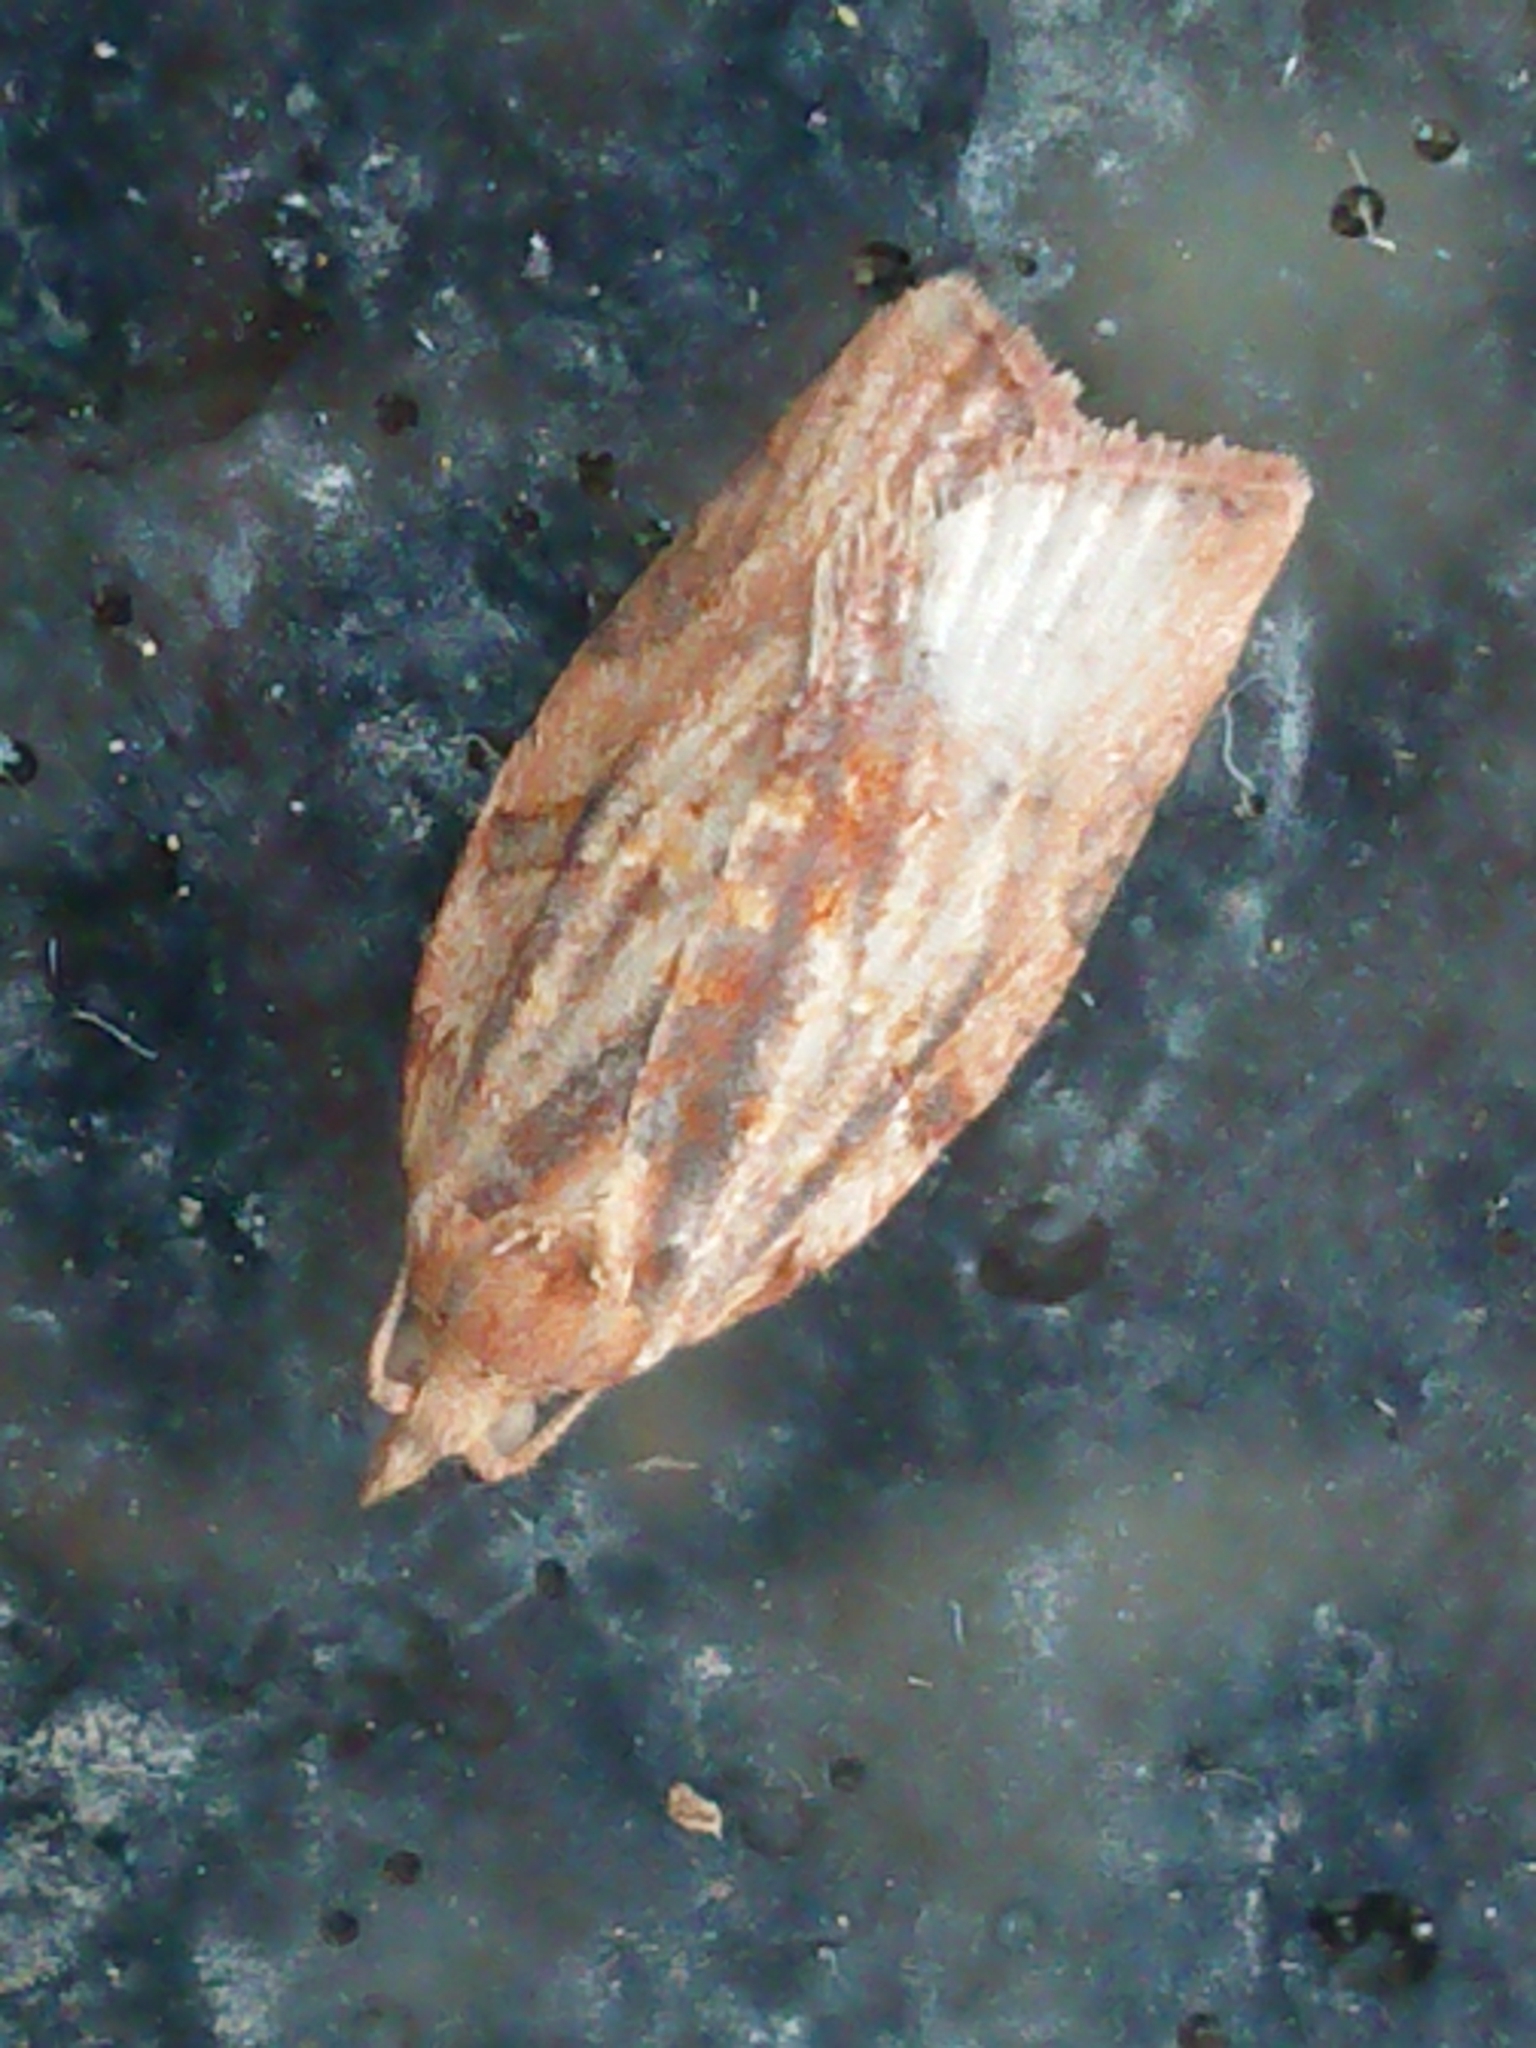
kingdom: Animalia
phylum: Arthropoda
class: Insecta
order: Lepidoptera
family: Tortricidae
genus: Epiphyas
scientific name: Epiphyas postvittana
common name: Light brown apple moth
